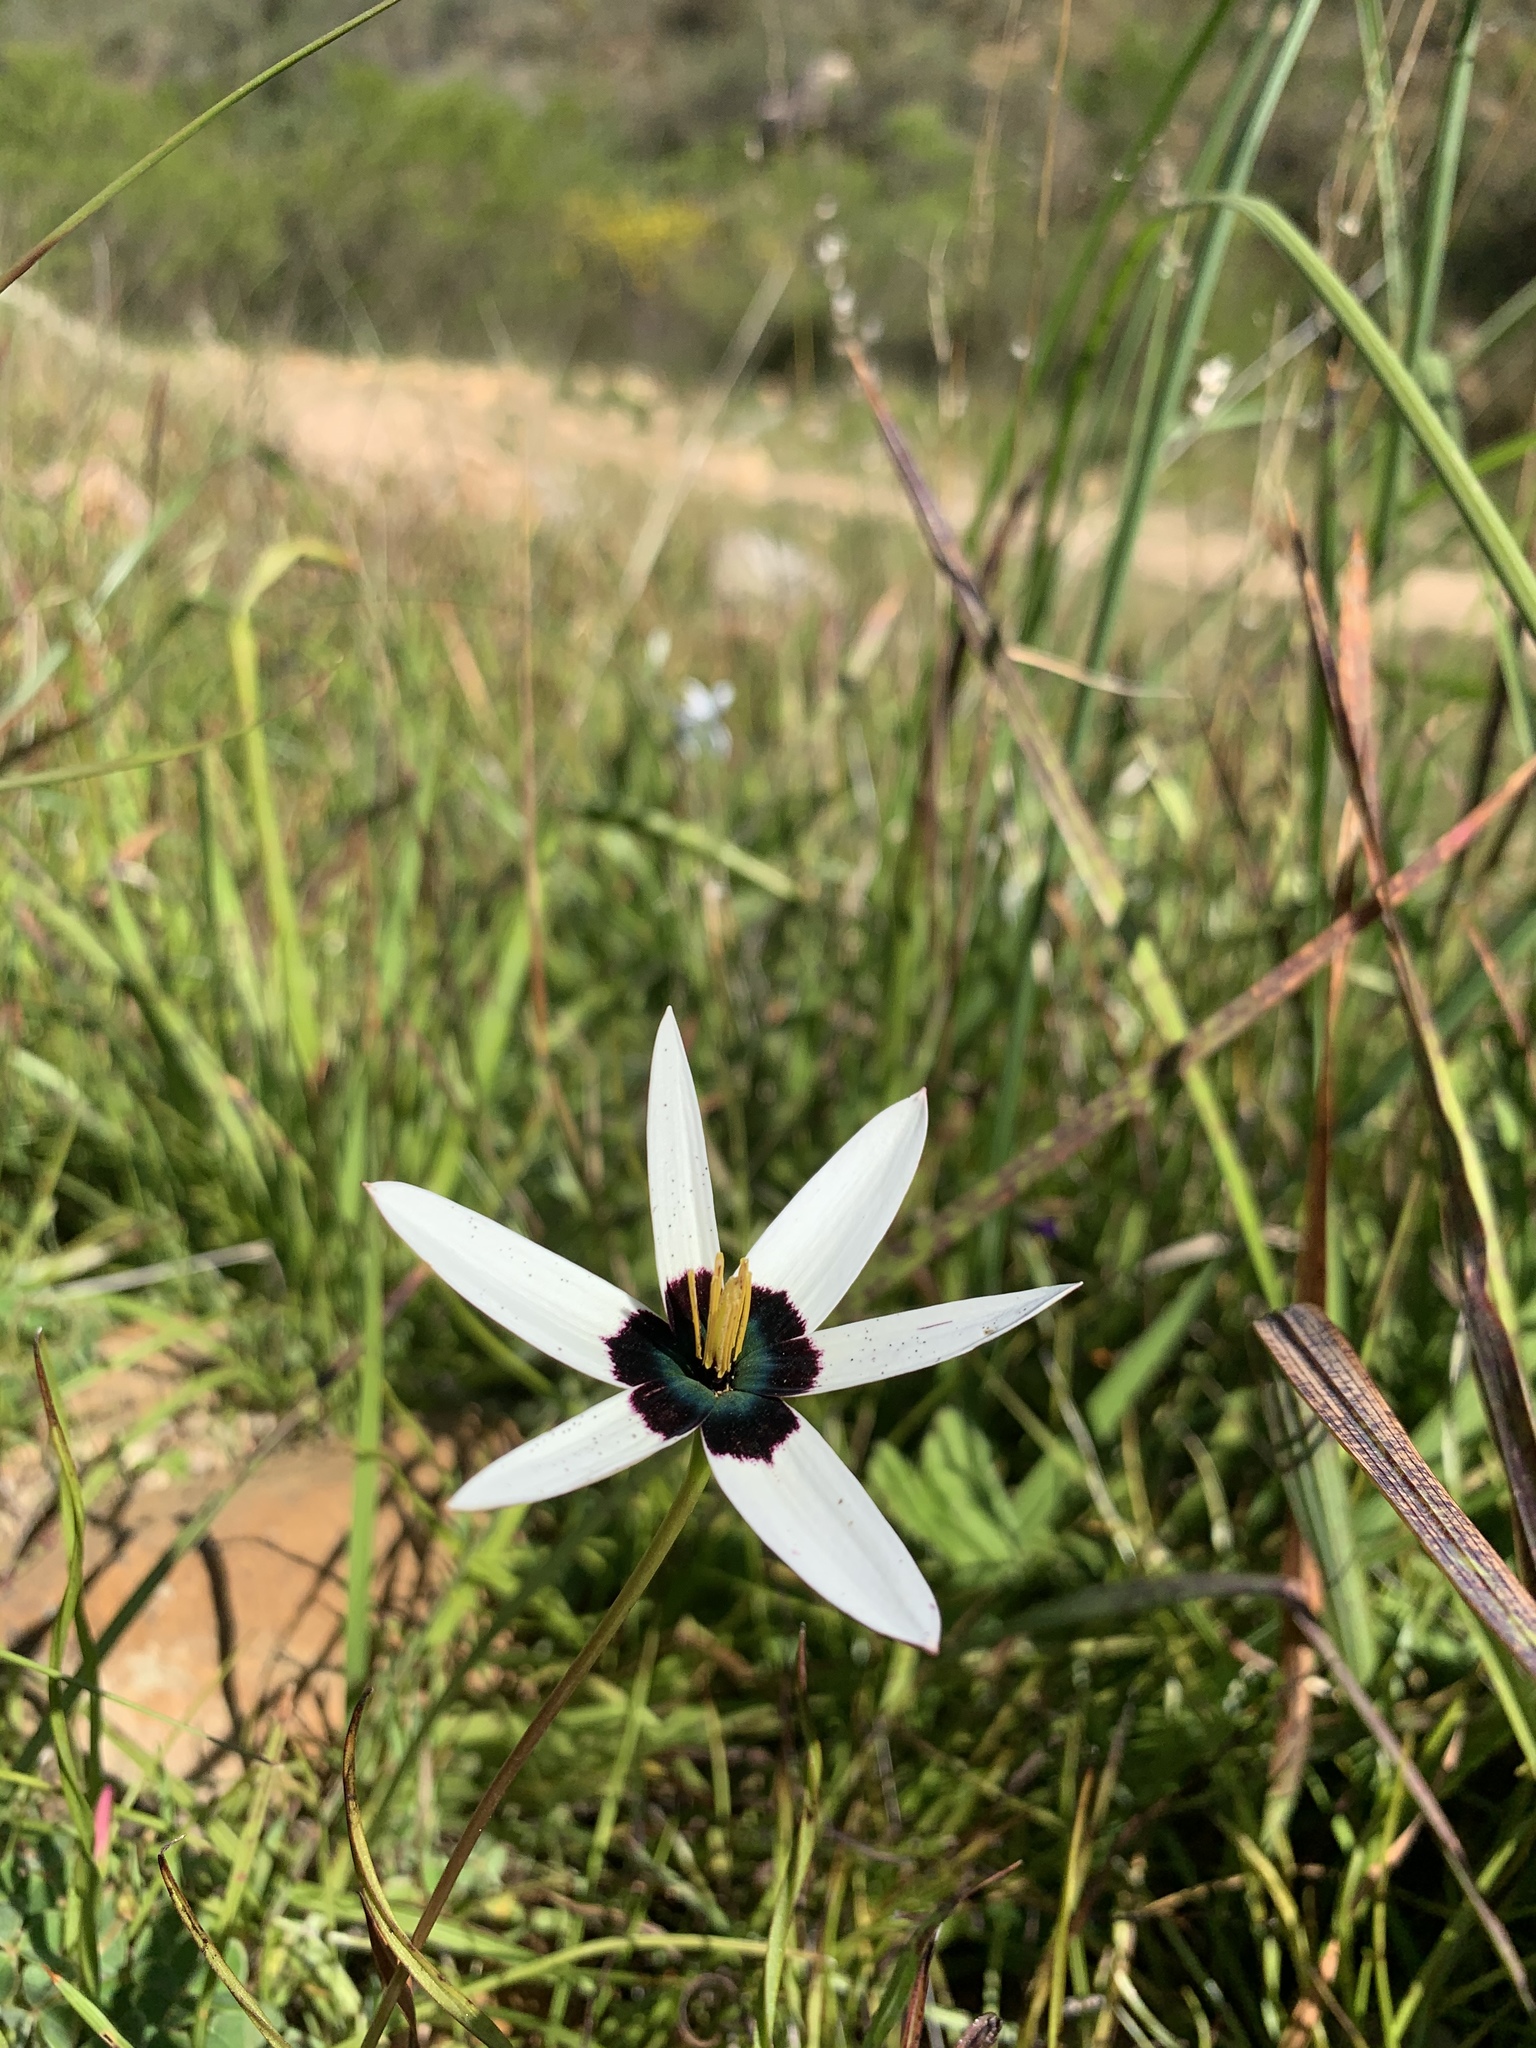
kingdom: Plantae
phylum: Tracheophyta
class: Liliopsida
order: Asparagales
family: Hypoxidaceae
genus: Pauridia
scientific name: Pauridia capensis
